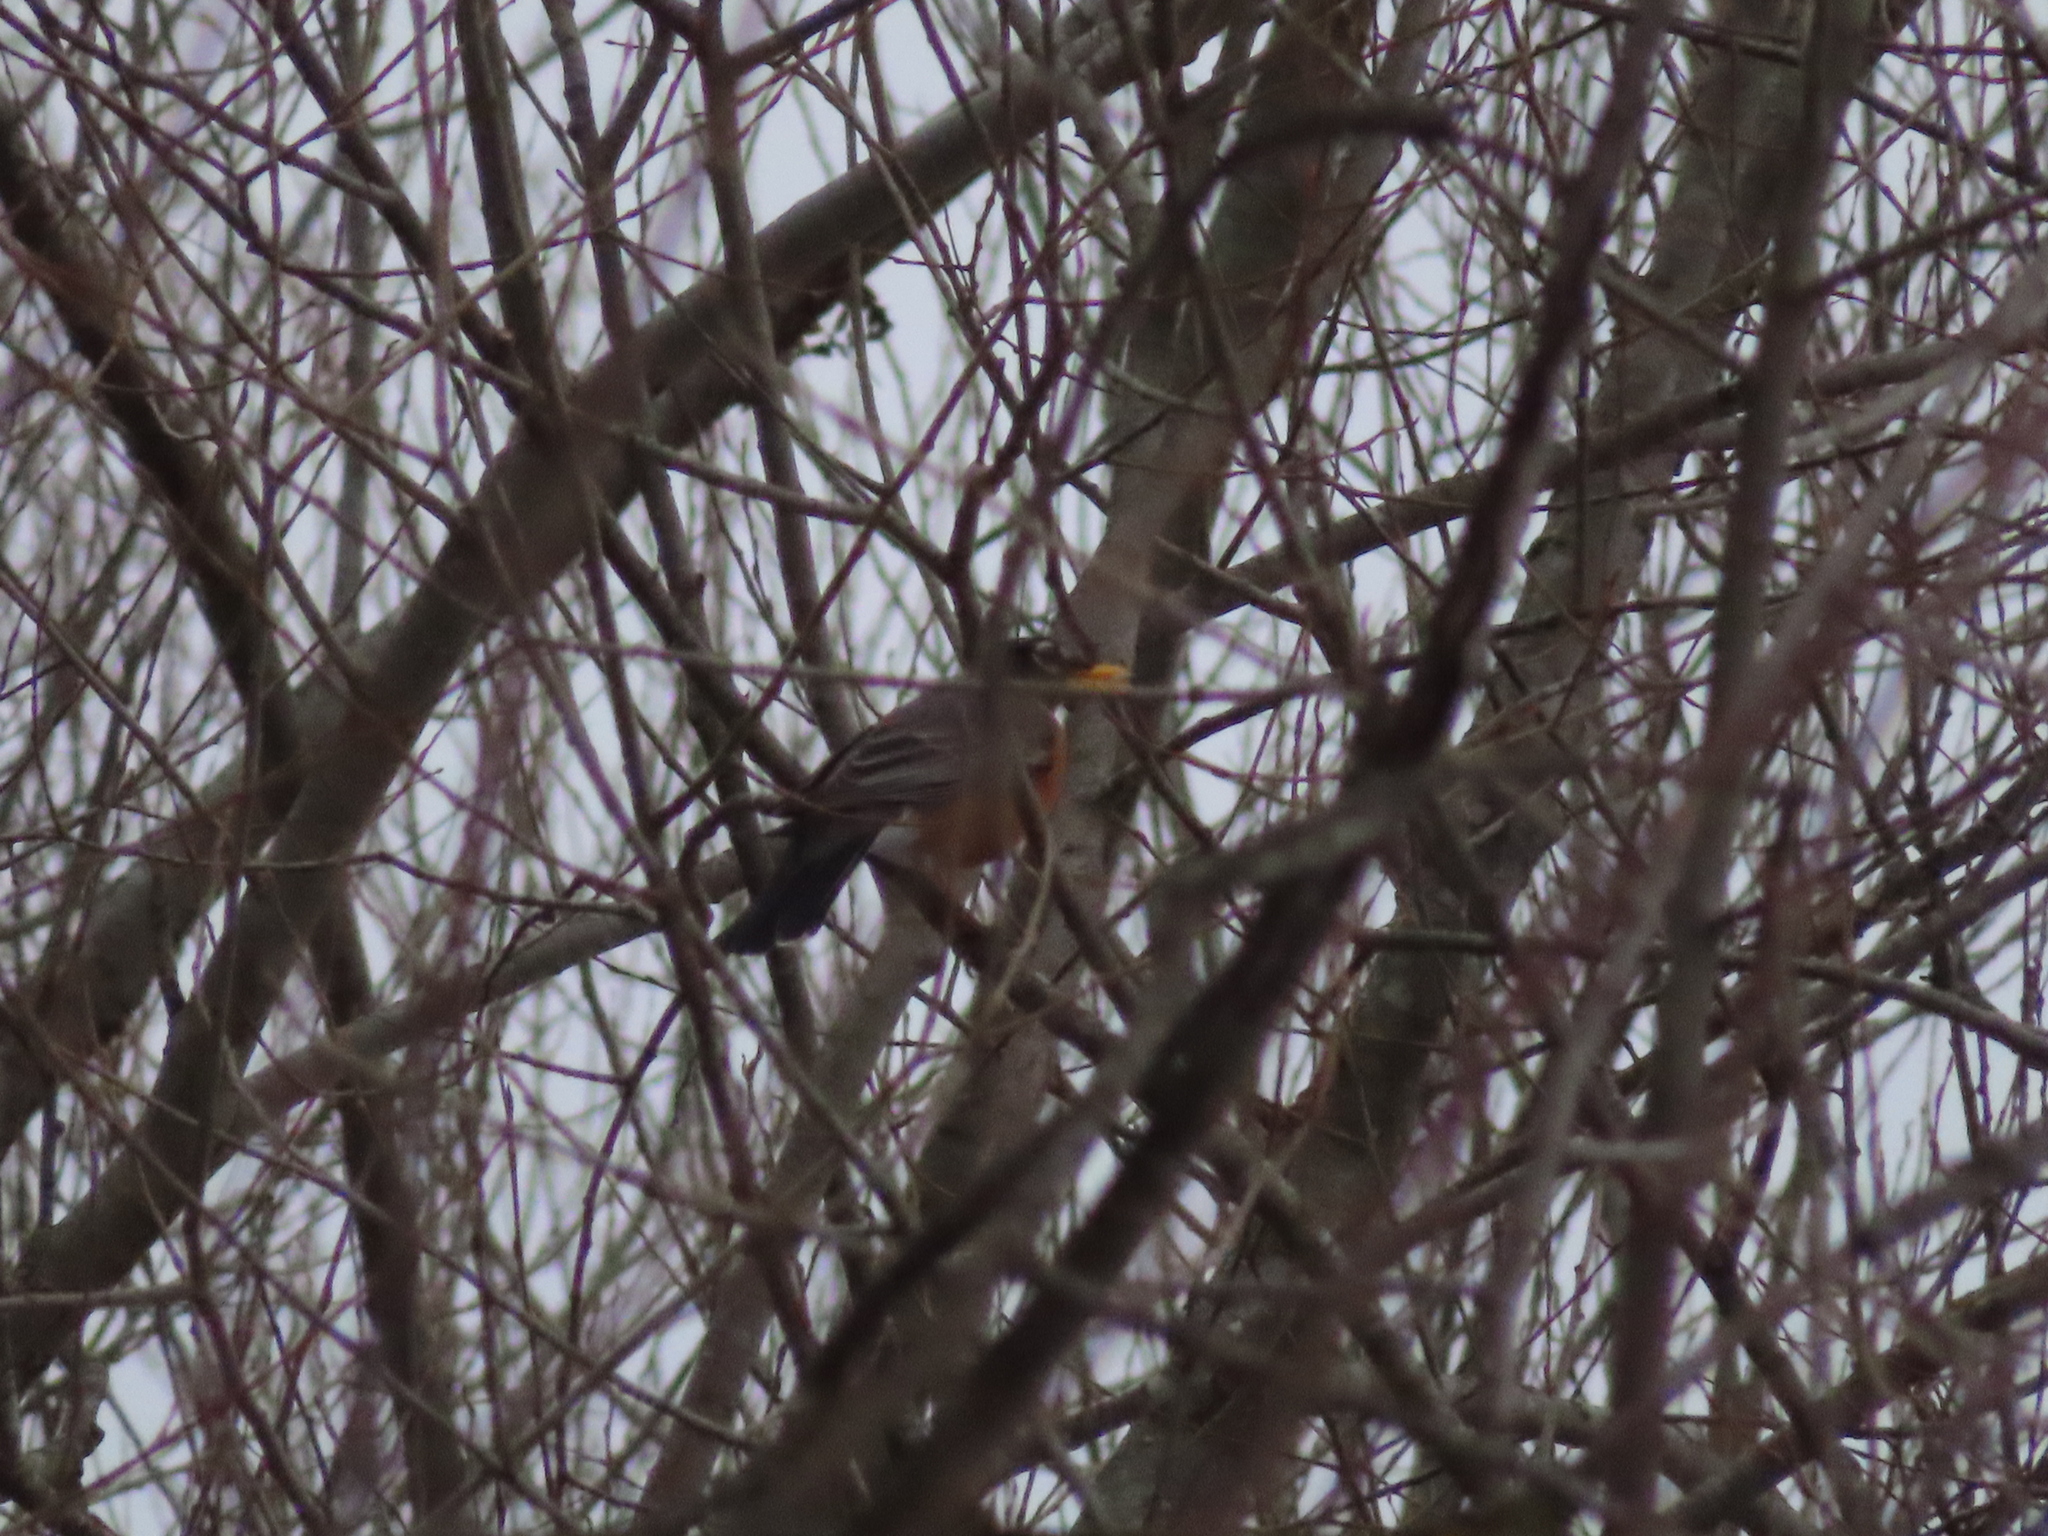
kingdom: Animalia
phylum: Chordata
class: Aves
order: Passeriformes
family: Turdidae
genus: Turdus
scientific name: Turdus migratorius
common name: American robin
